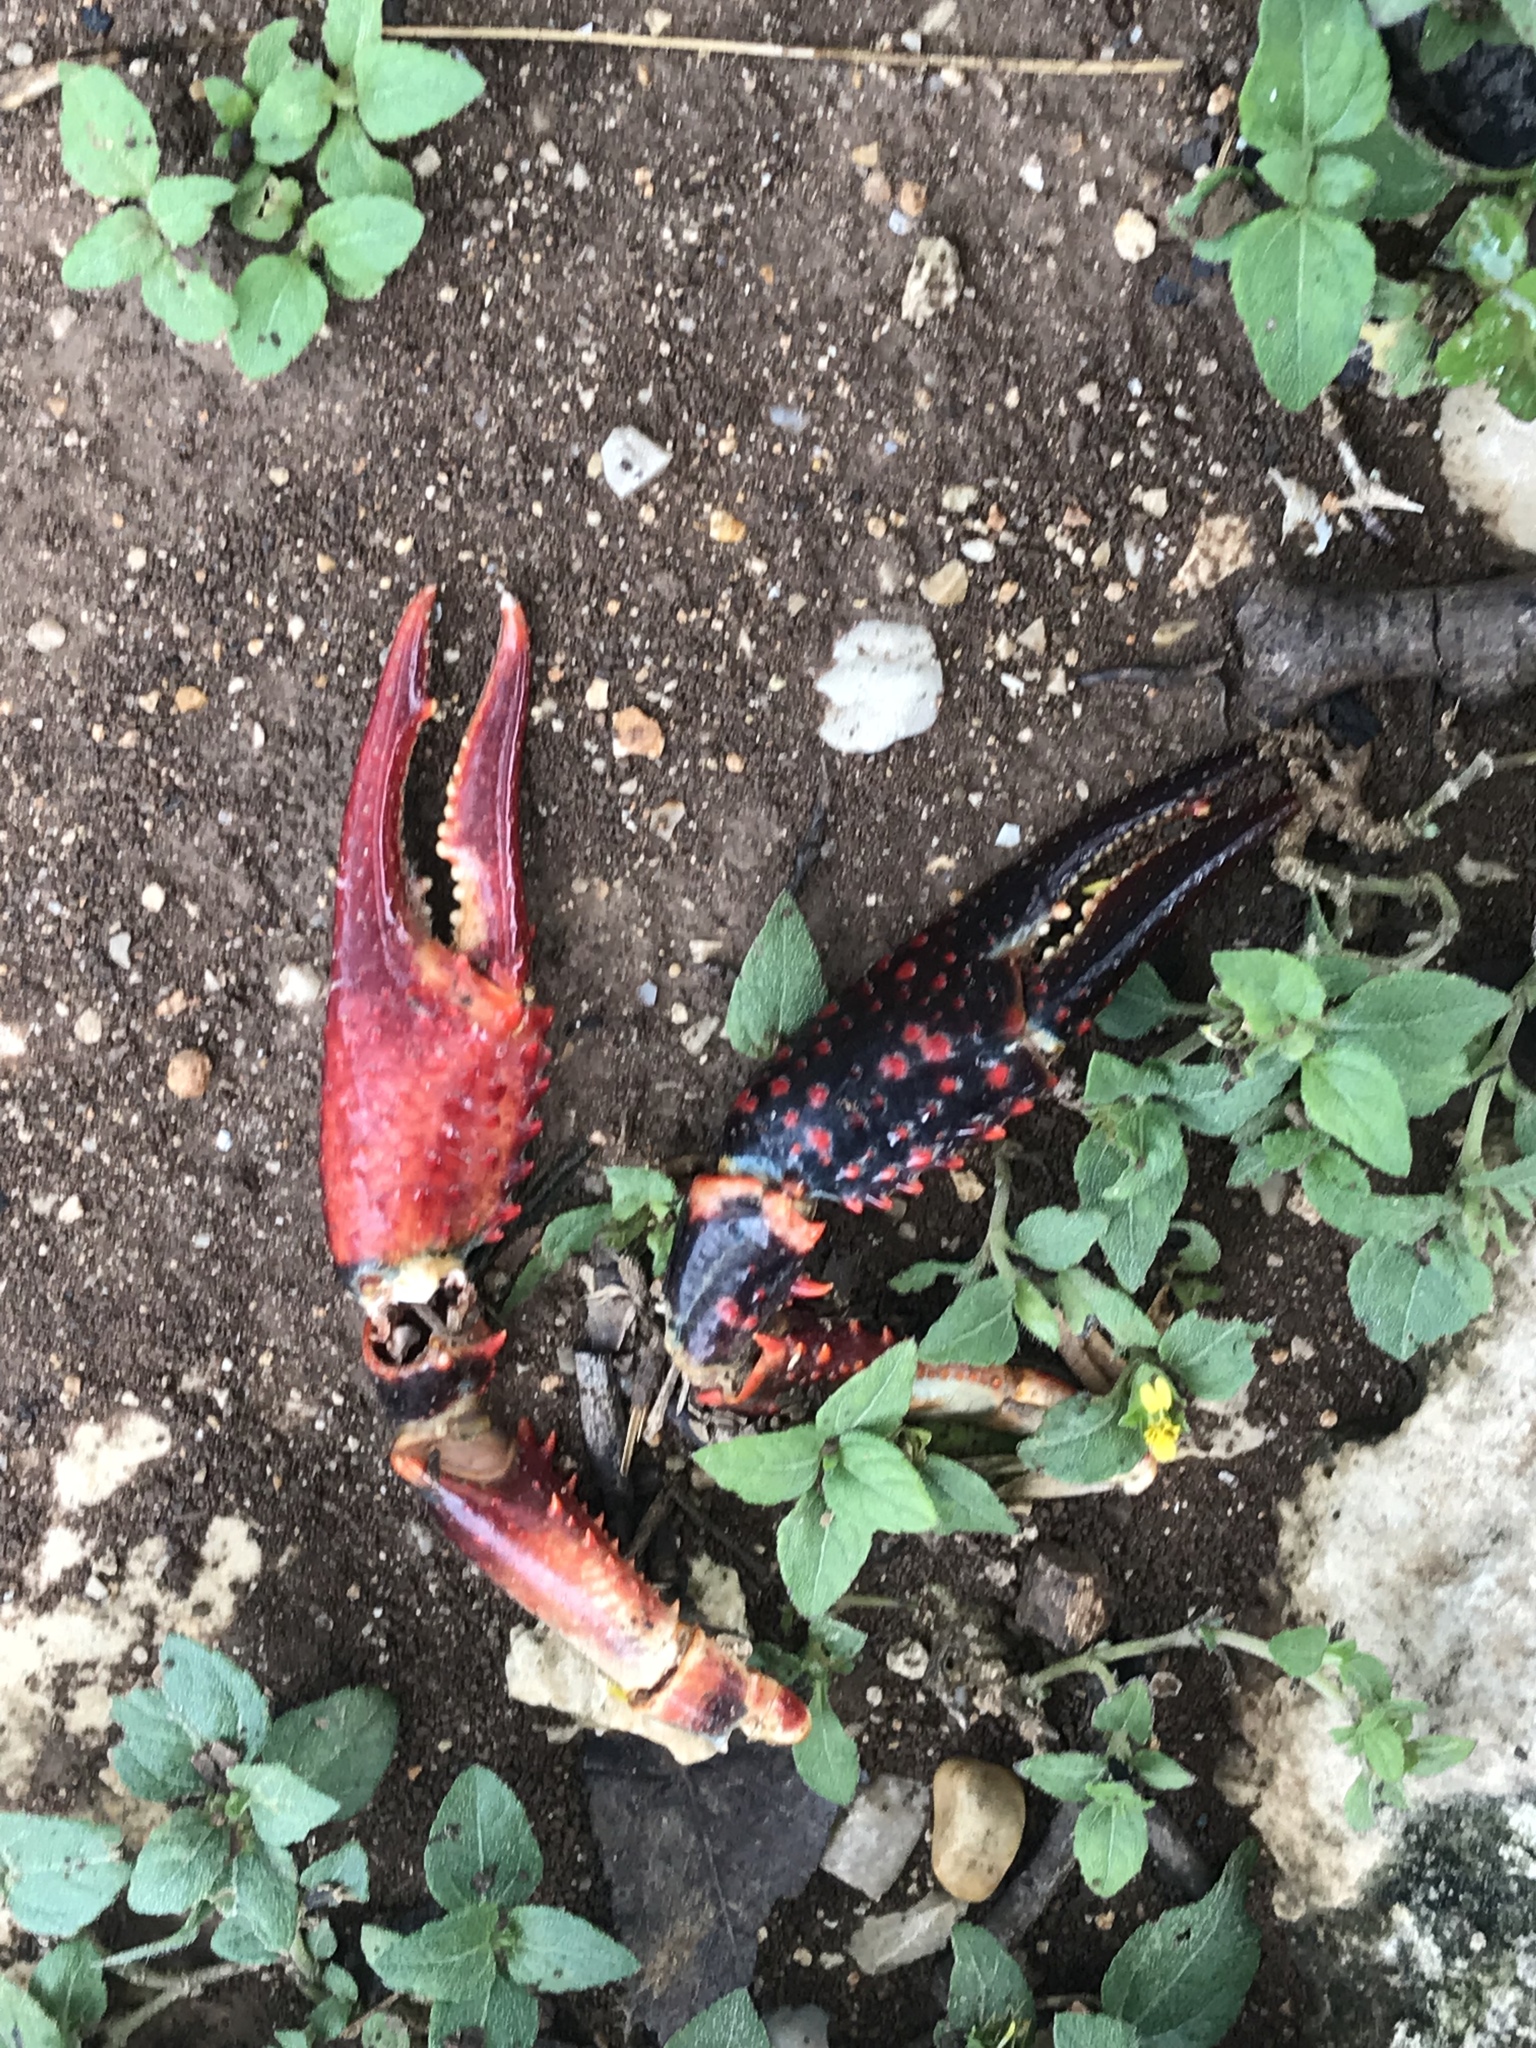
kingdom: Animalia
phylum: Arthropoda
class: Malacostraca
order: Decapoda
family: Cambaridae
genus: Procambarus
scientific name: Procambarus clarkii
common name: Red swamp crayfish
